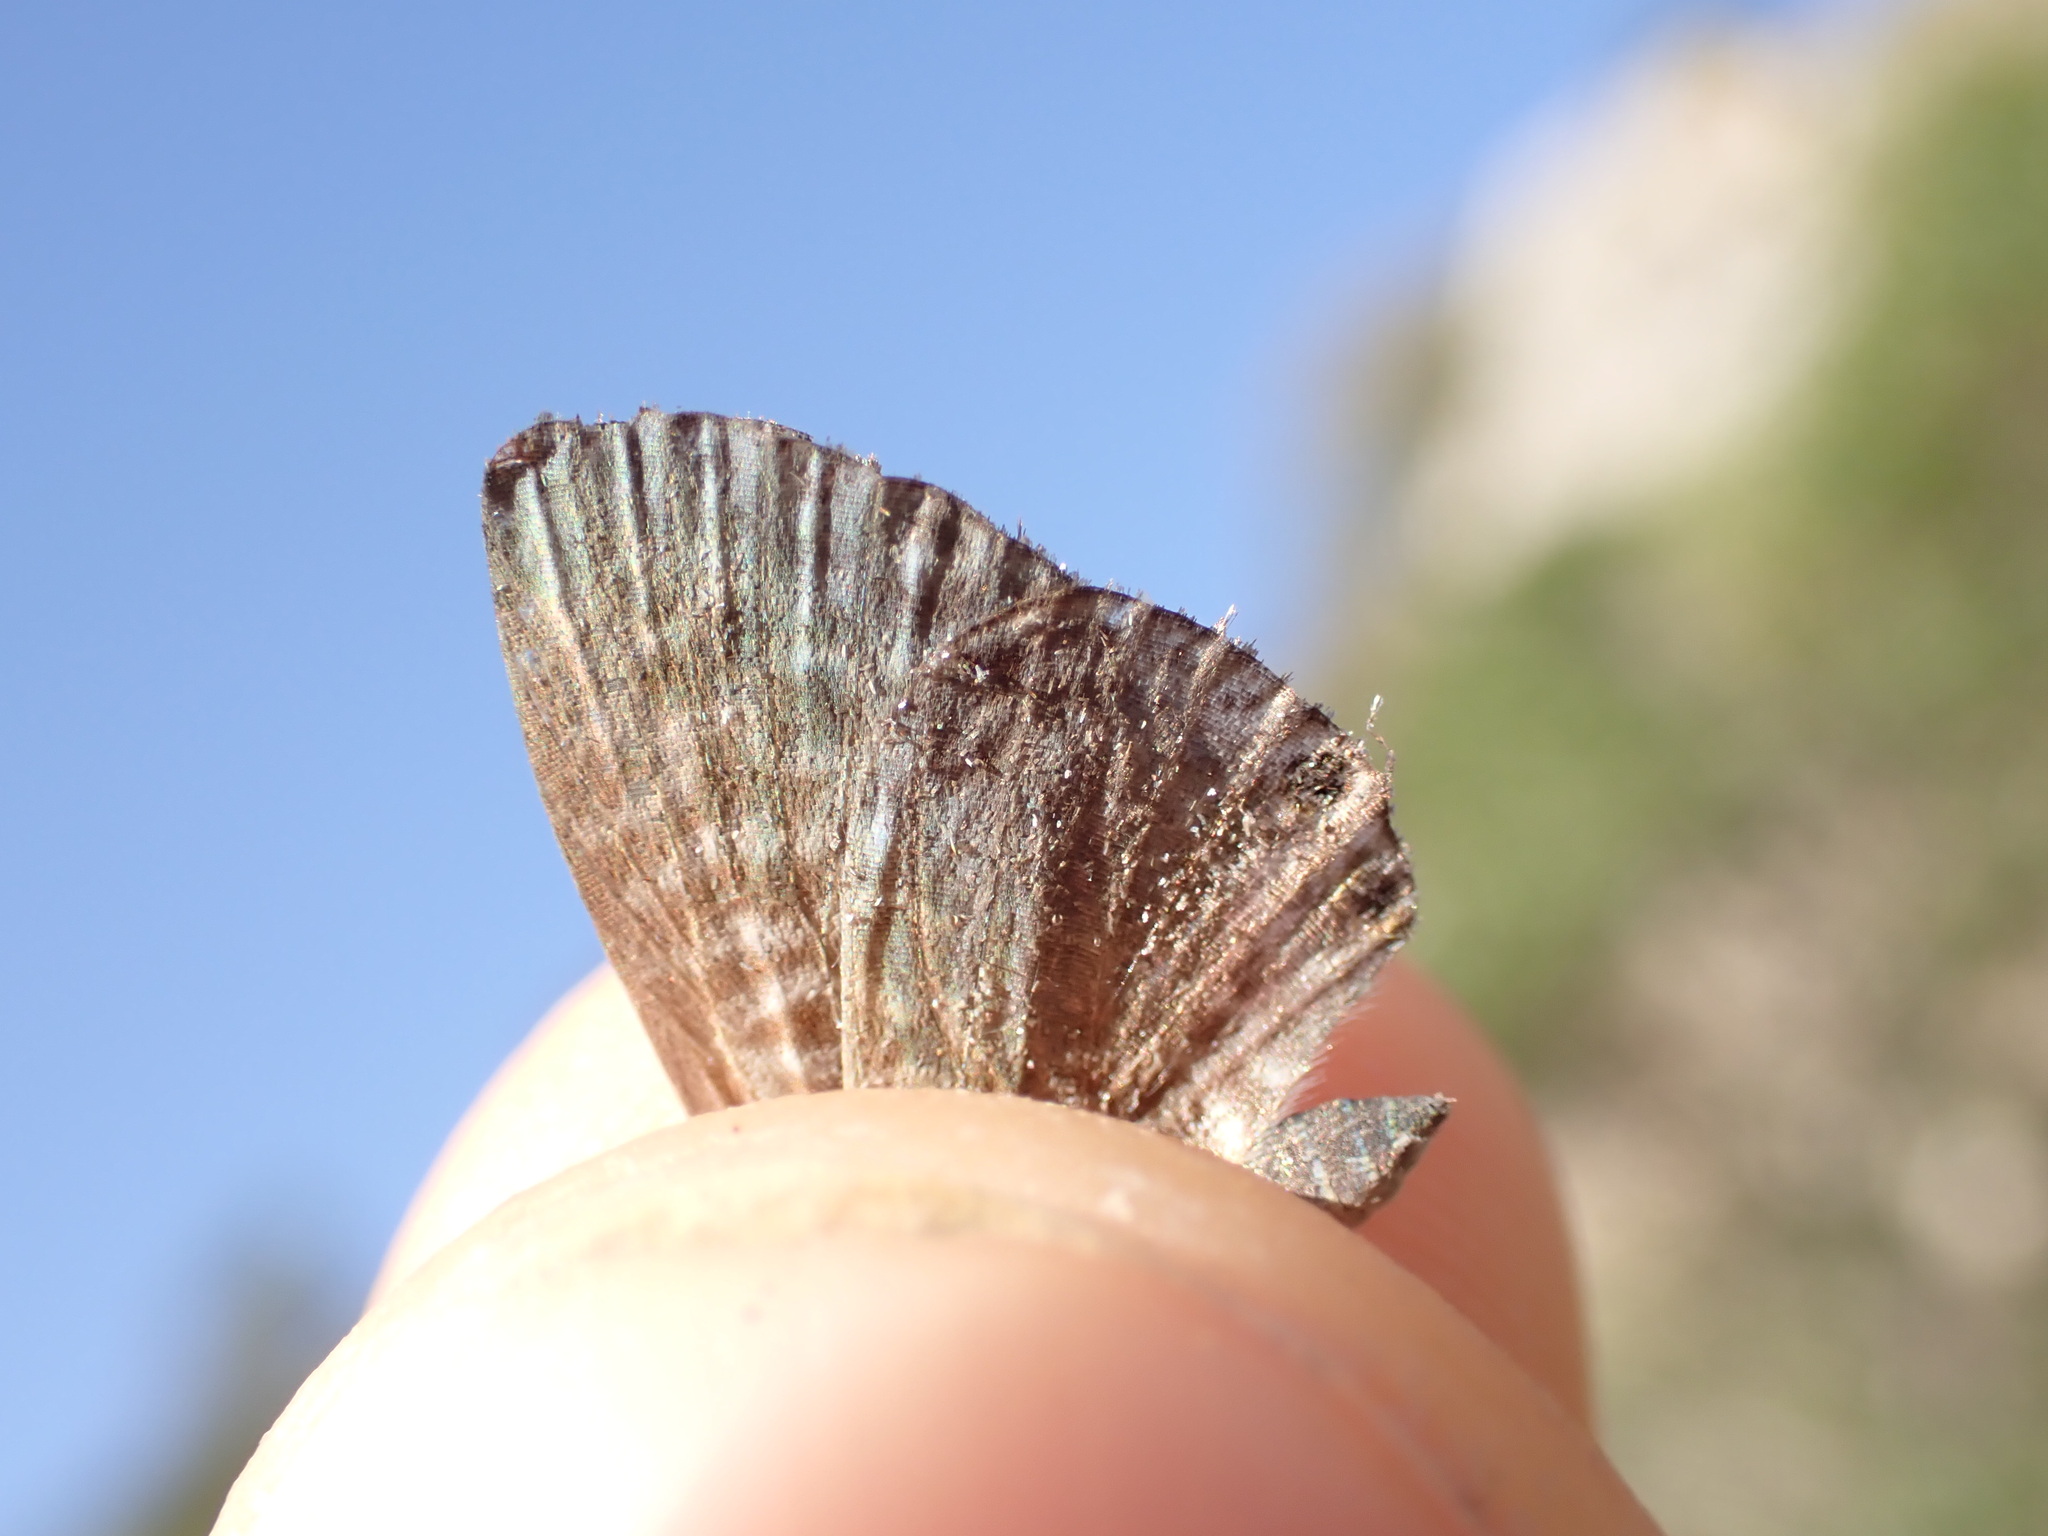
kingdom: Animalia
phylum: Arthropoda
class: Insecta
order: Lepidoptera
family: Lycaenidae
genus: Leptotes
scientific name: Leptotes pirithous
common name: Lang's short-tailed blue
